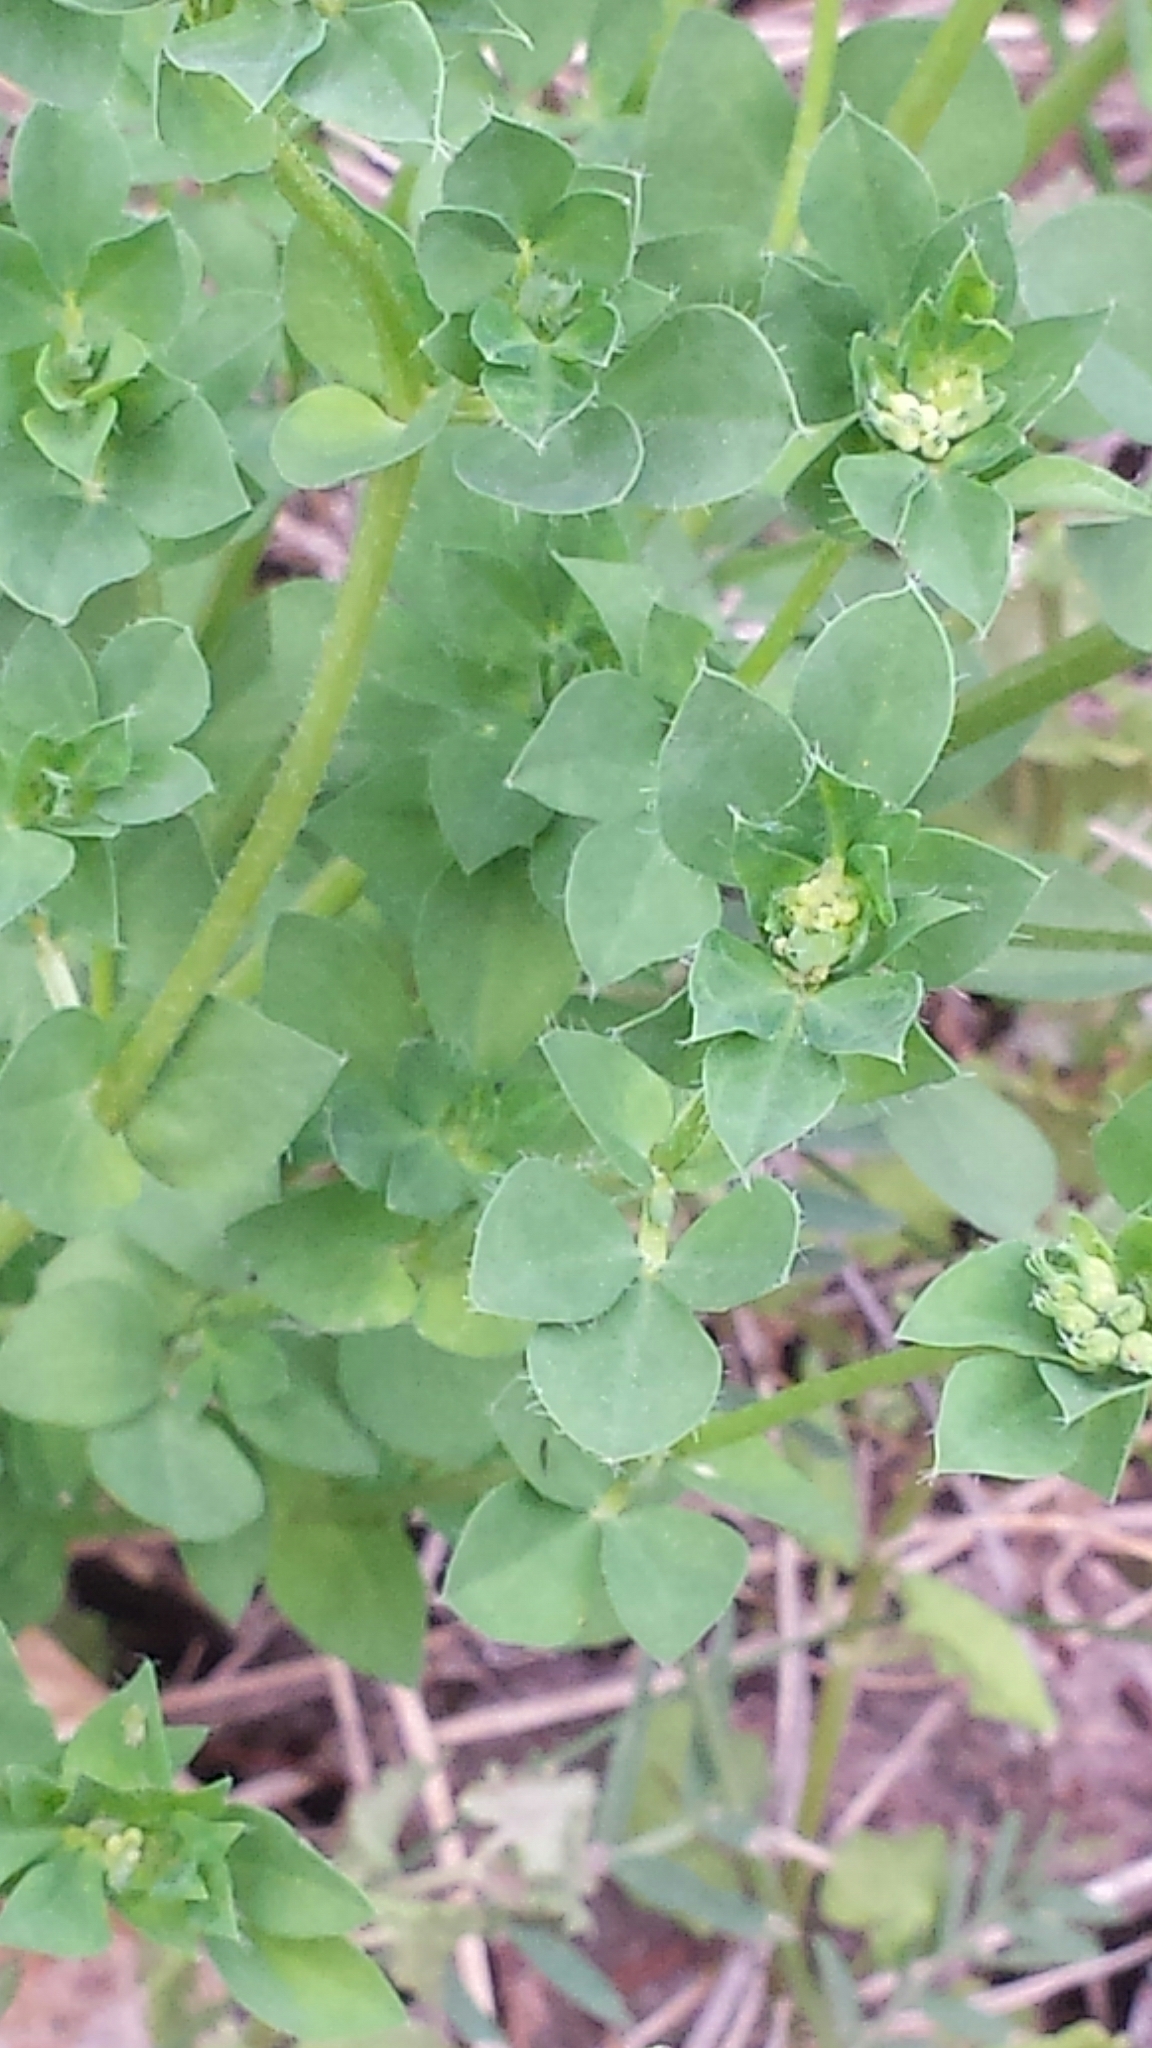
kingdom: Plantae
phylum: Tracheophyta
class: Magnoliopsida
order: Fabales
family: Fabaceae
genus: Lotus
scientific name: Lotus corniculatus
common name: Common bird's-foot-trefoil
